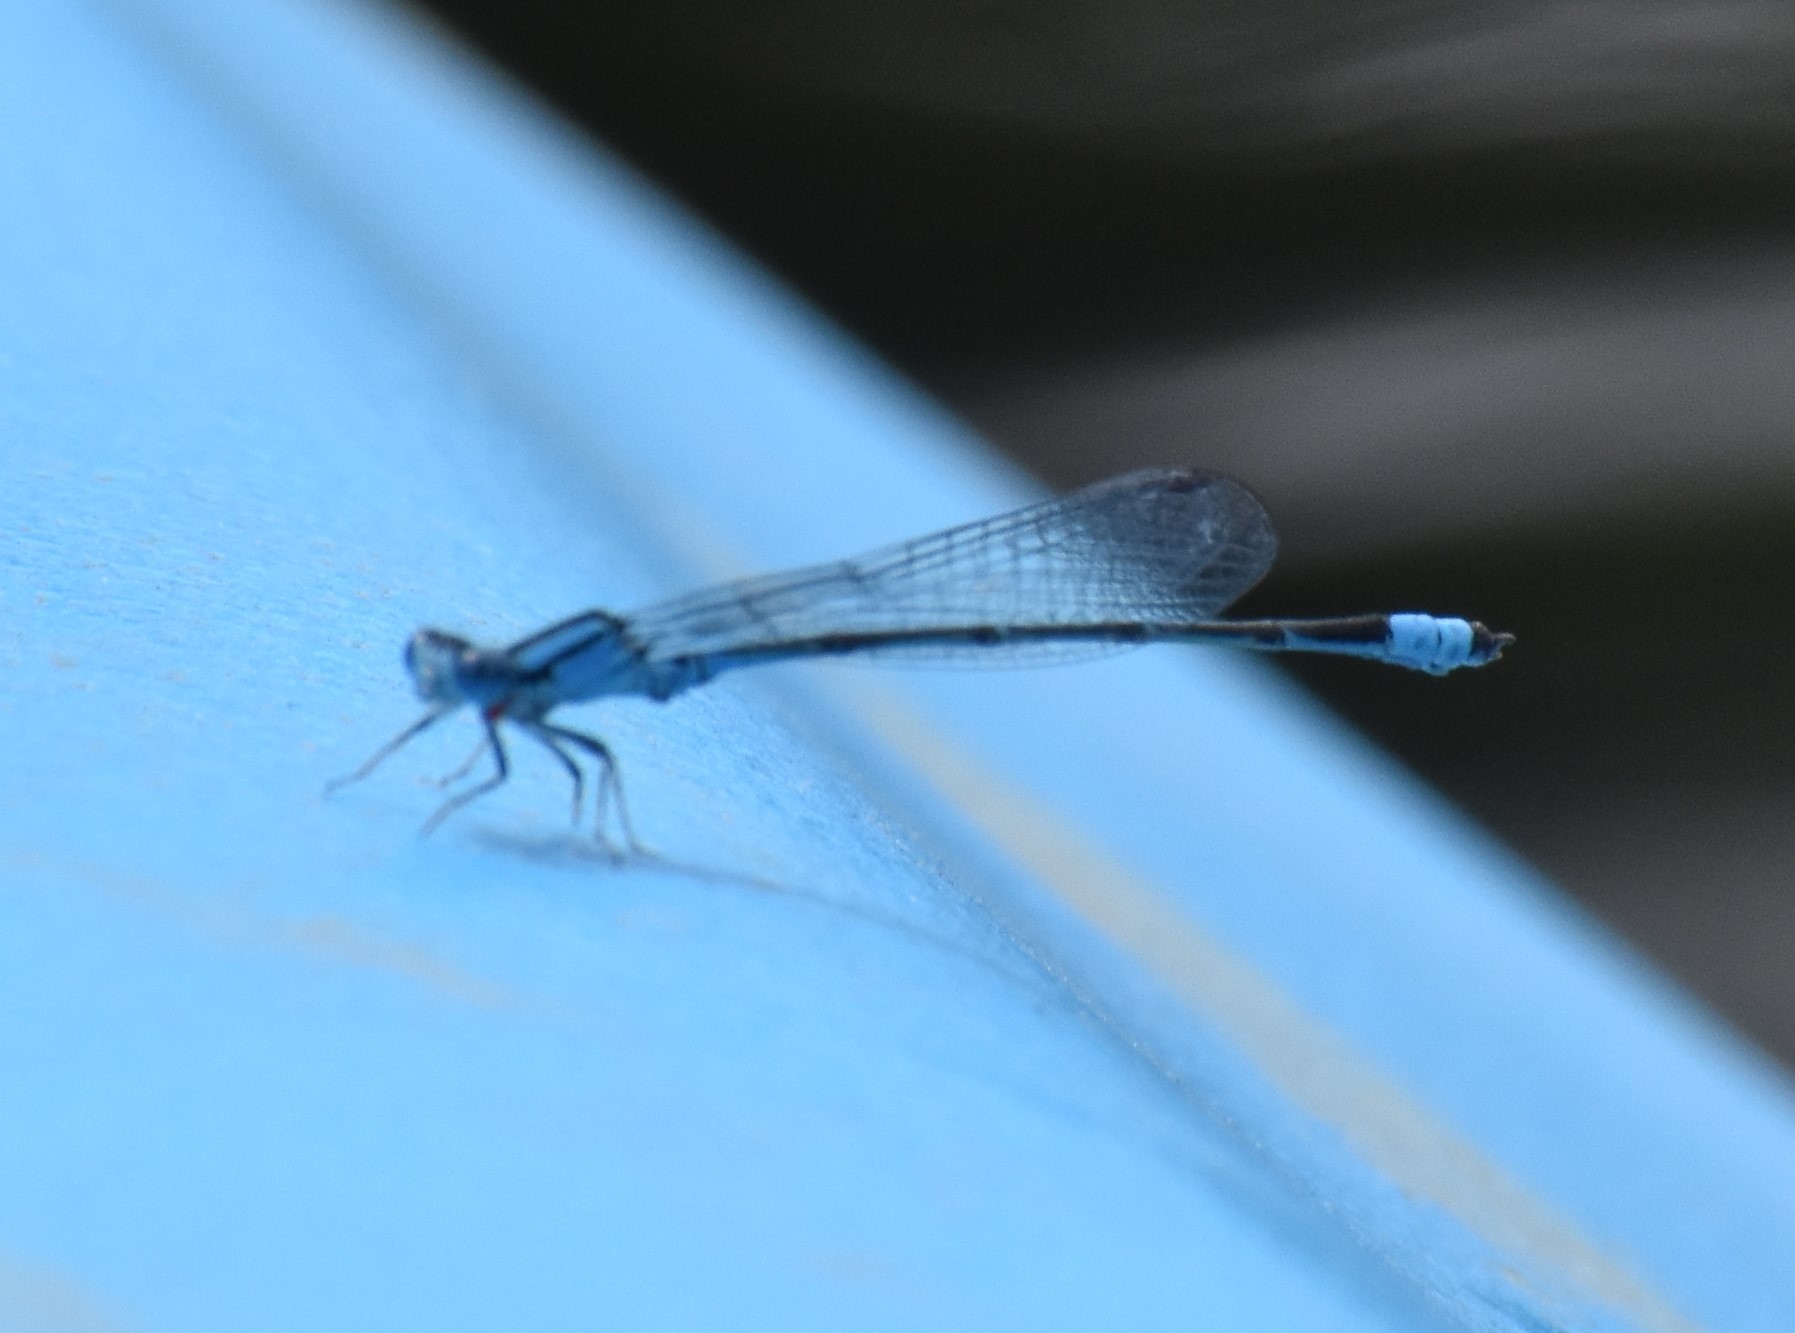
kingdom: Animalia
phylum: Arthropoda
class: Insecta
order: Odonata
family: Coenagrionidae
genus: Enallagma
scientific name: Enallagma traviatum
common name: Slender bluet
